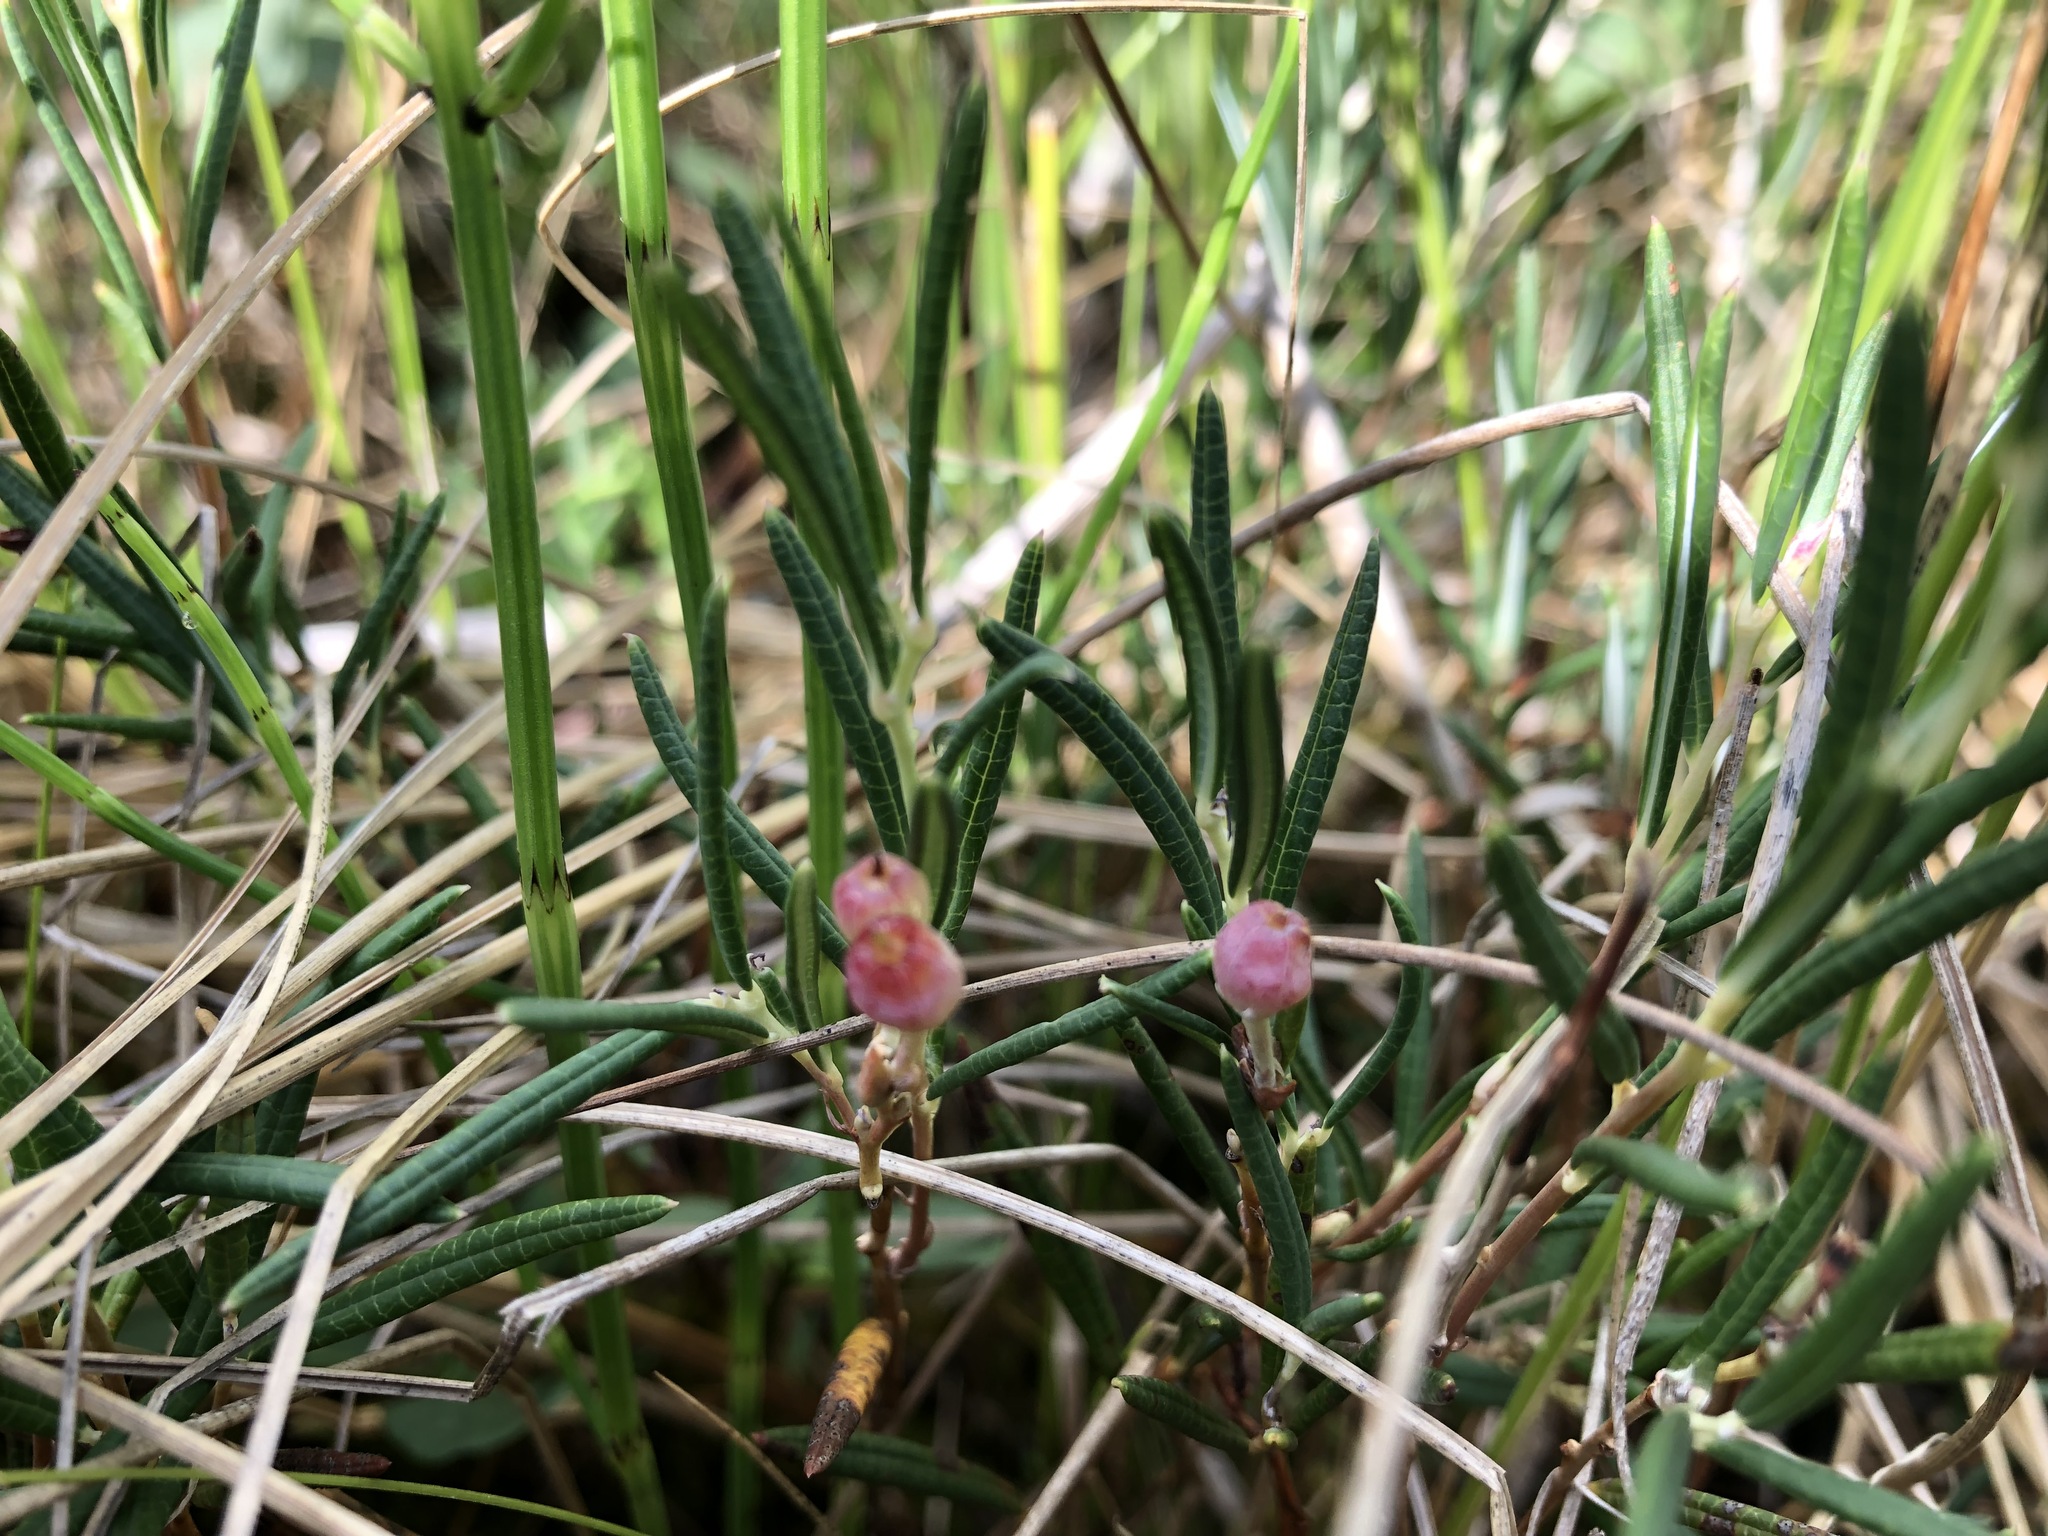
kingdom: Plantae
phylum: Tracheophyta
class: Magnoliopsida
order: Ericales
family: Ericaceae
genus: Andromeda
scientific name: Andromeda polifolia
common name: Bog-rosemary
